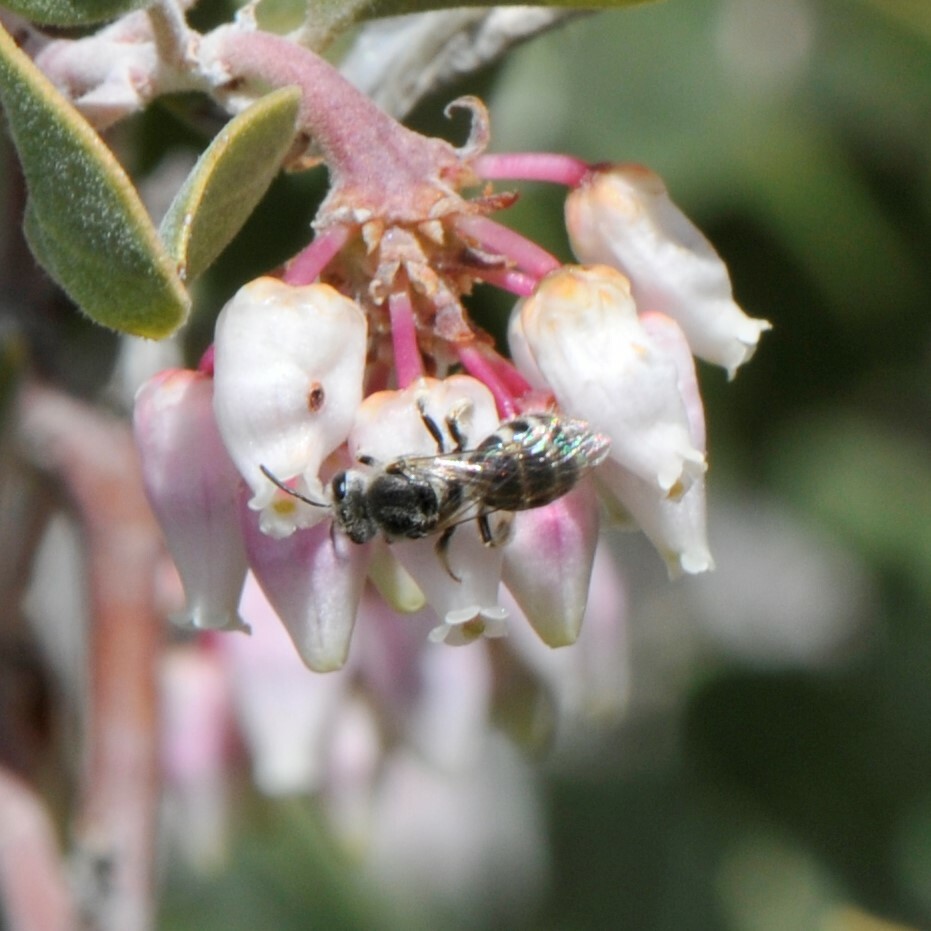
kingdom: Animalia
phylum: Arthropoda
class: Insecta
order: Hymenoptera
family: Halictidae
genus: Lasioglossum
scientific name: Lasioglossum
